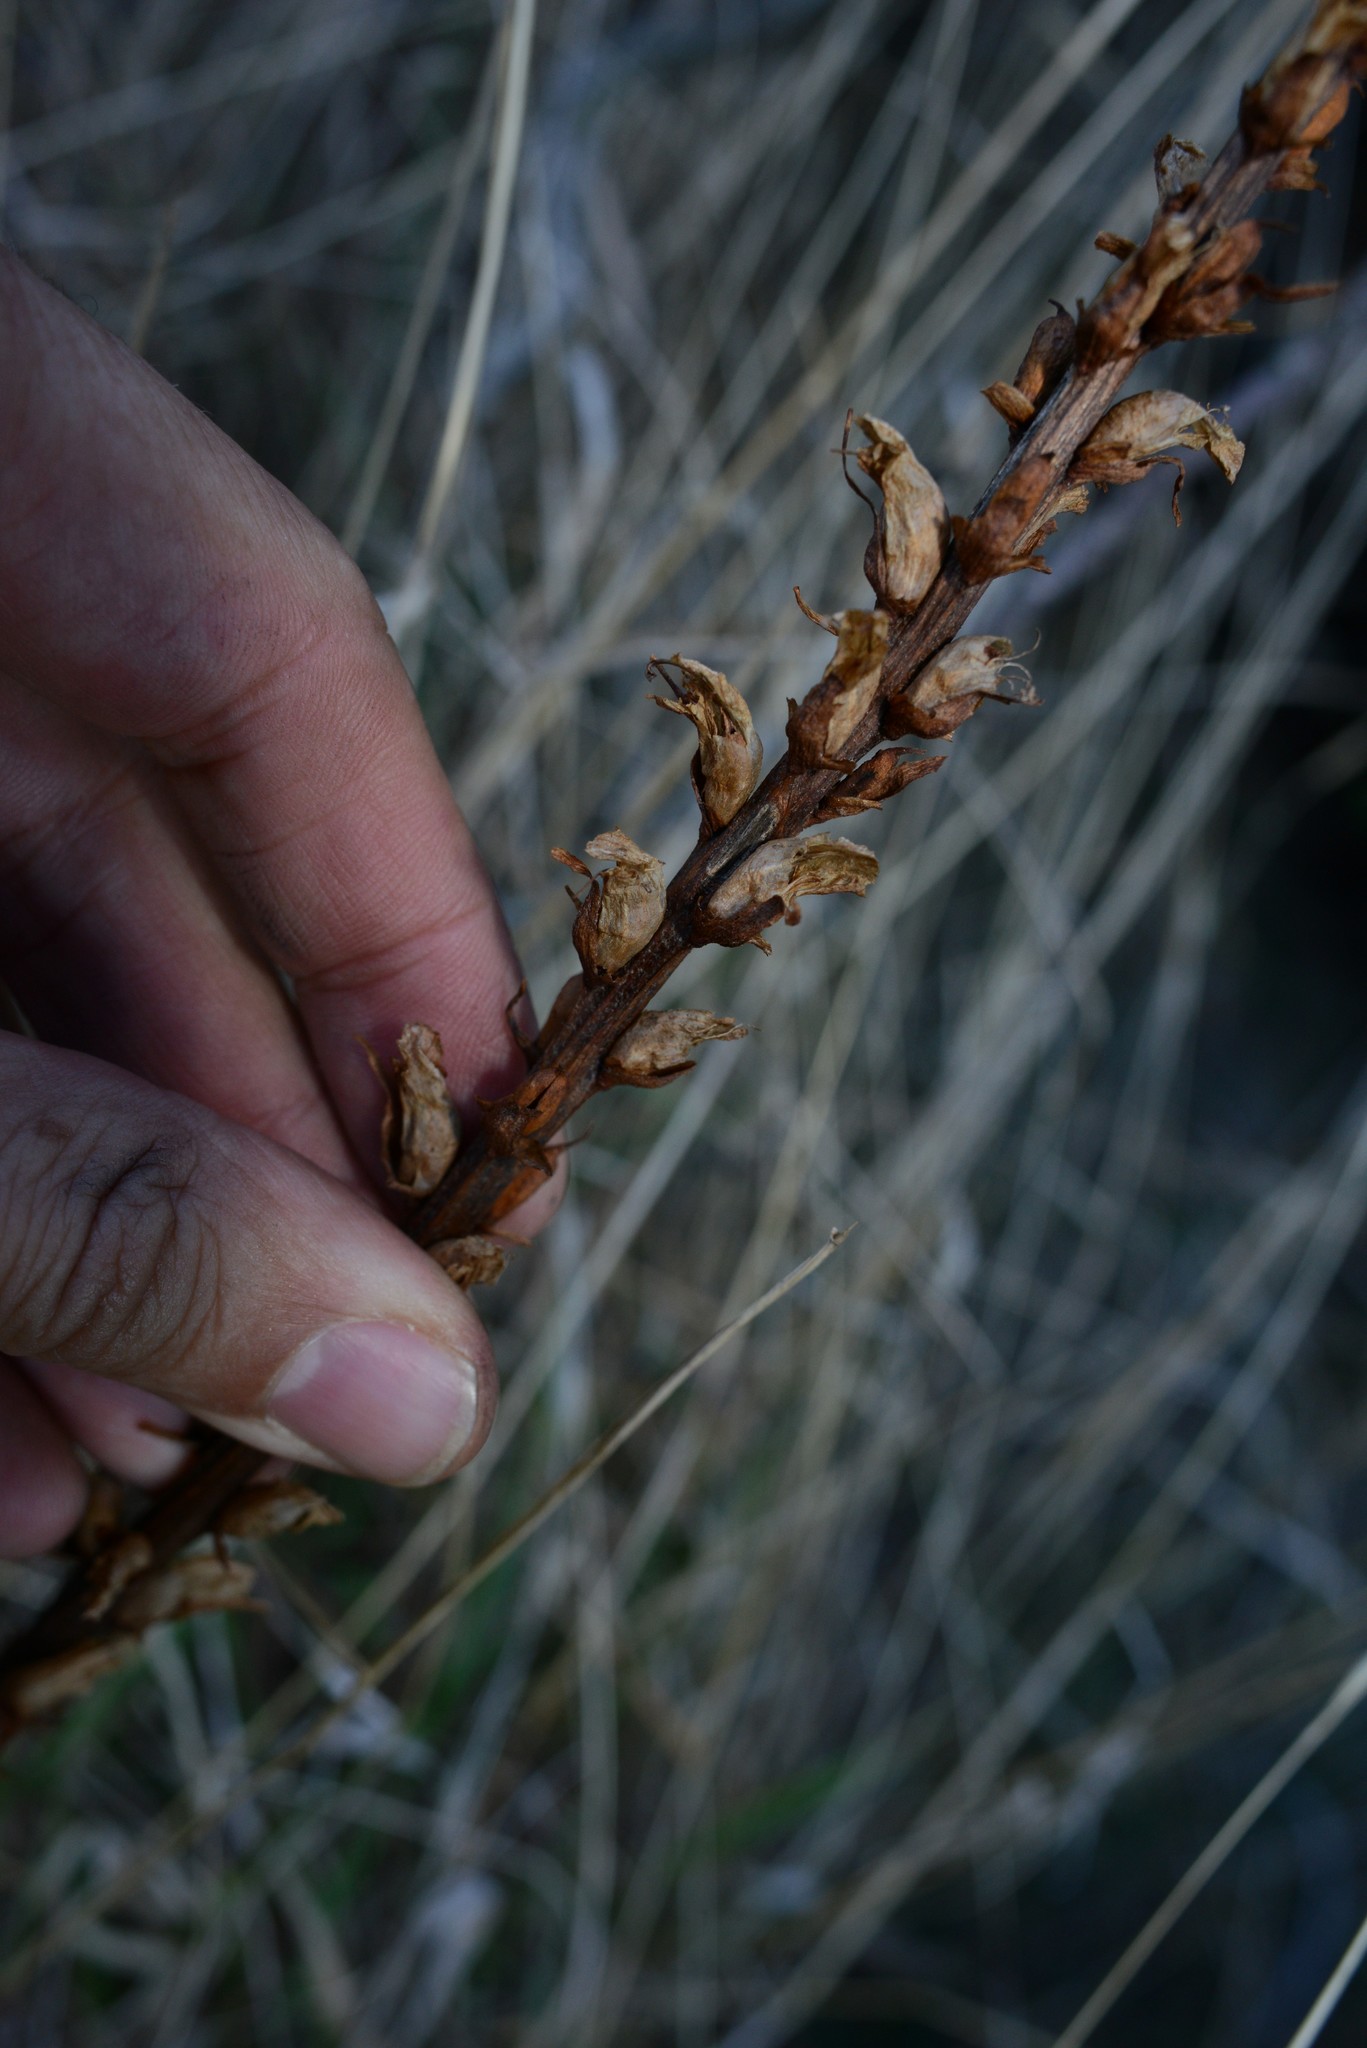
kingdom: Plantae
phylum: Tracheophyta
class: Magnoliopsida
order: Lamiales
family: Orobanchaceae
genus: Orobanche
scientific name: Orobanche minor
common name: Common broomrape
